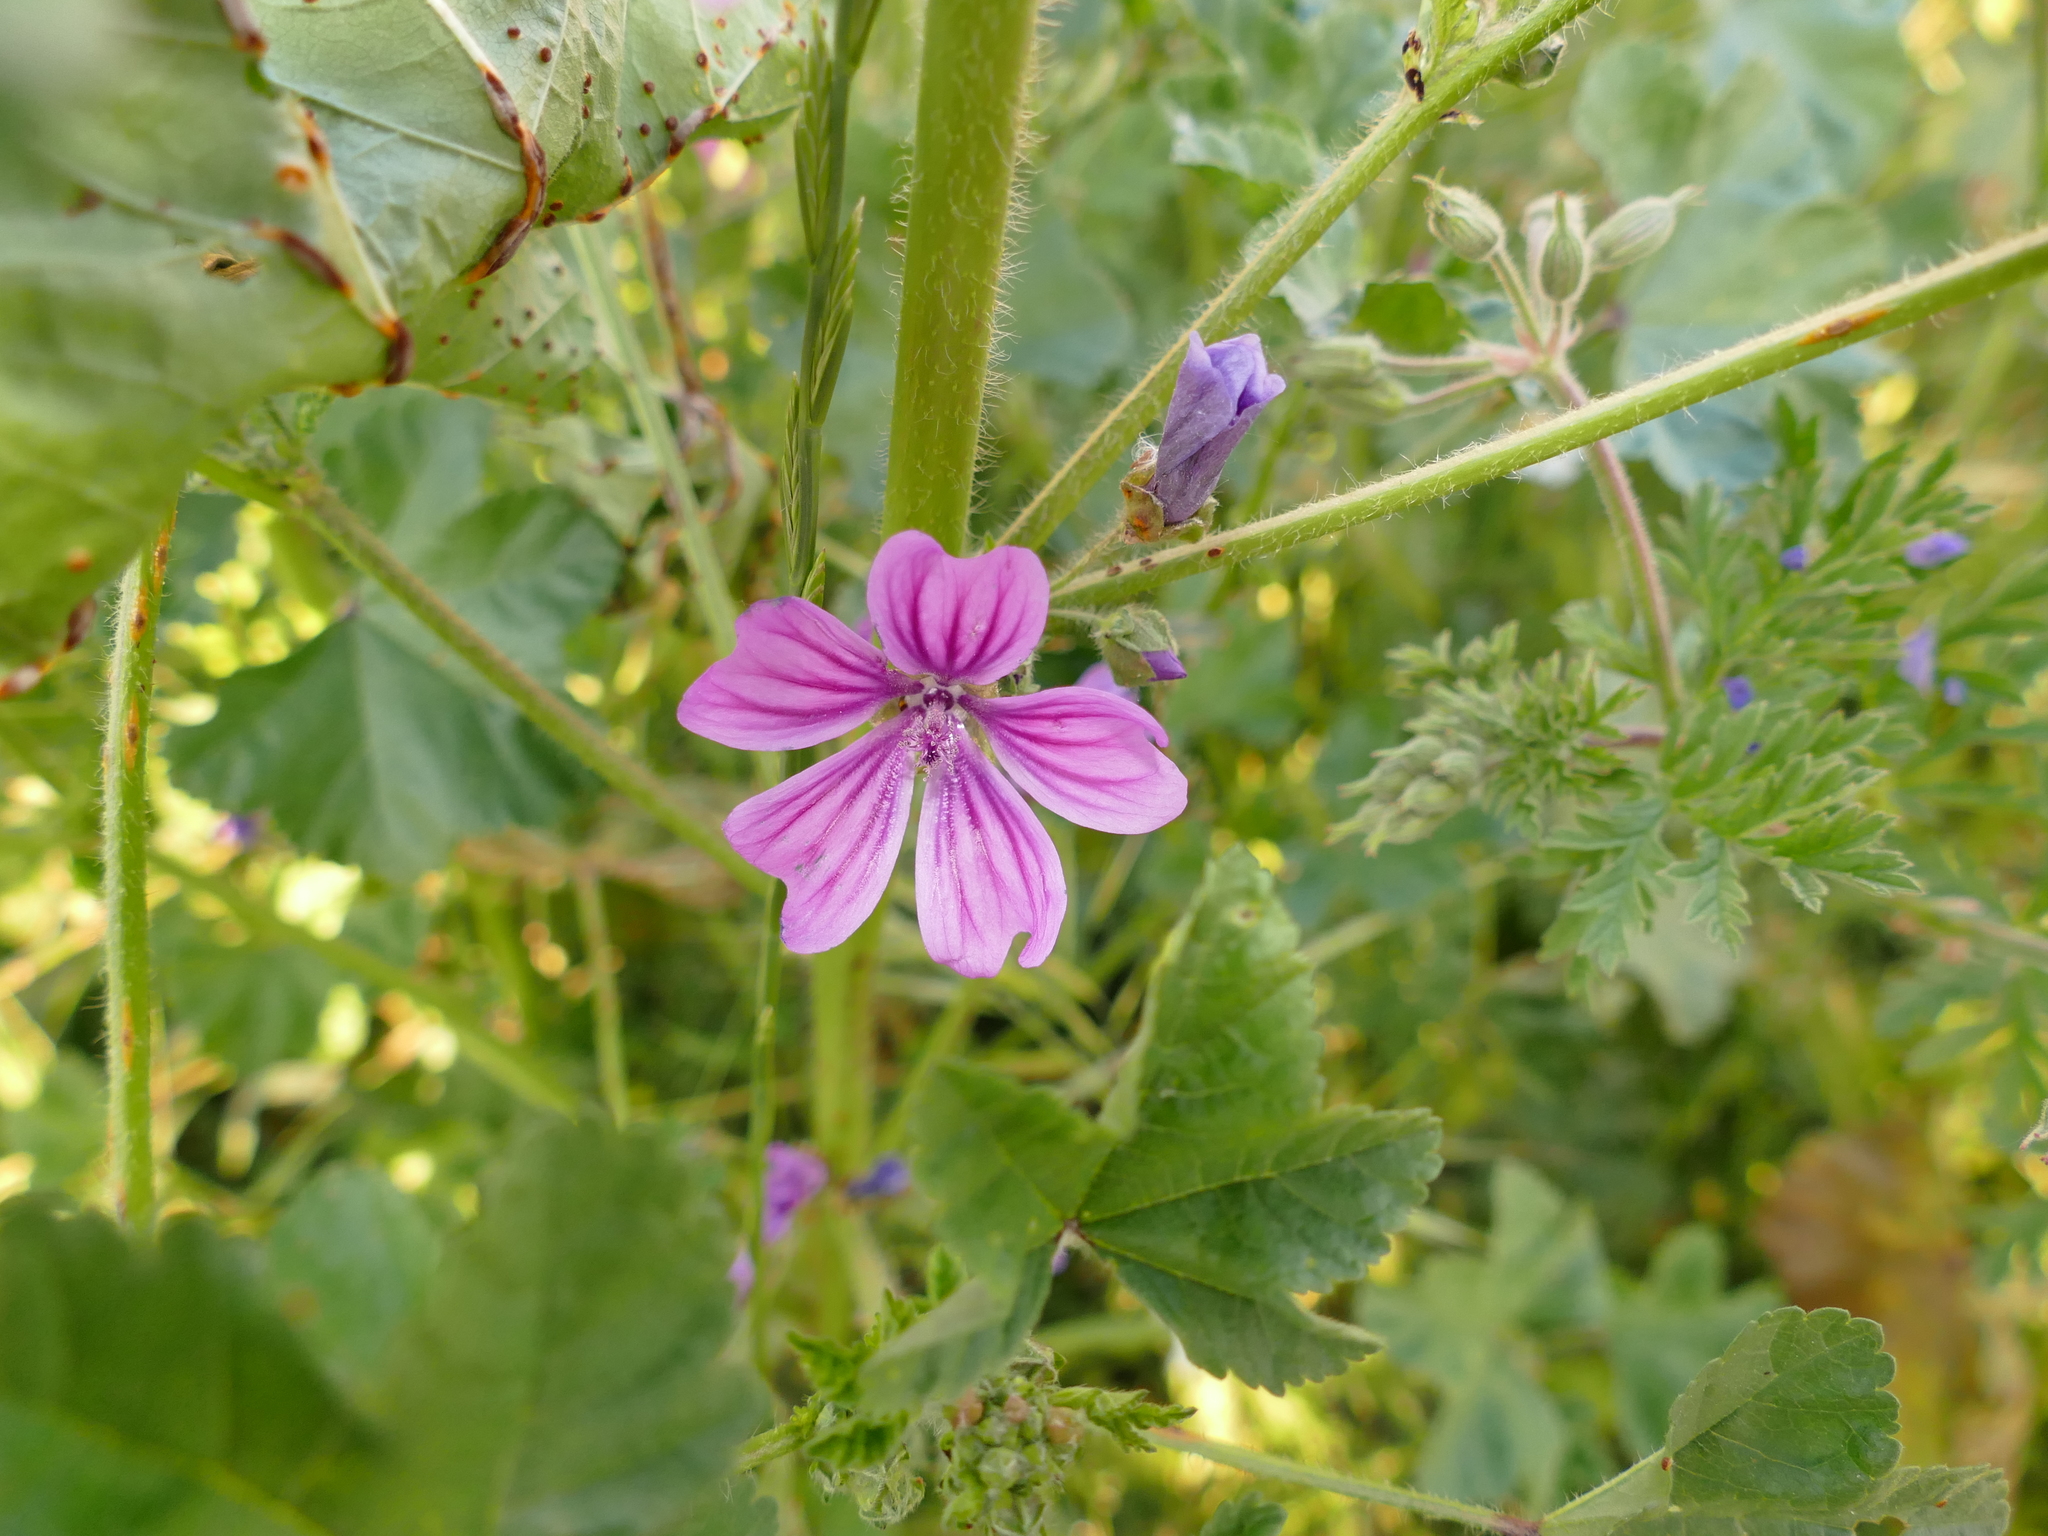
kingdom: Plantae
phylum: Tracheophyta
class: Magnoliopsida
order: Malvales
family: Malvaceae
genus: Malva
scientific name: Malva sylvestris
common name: Common mallow
